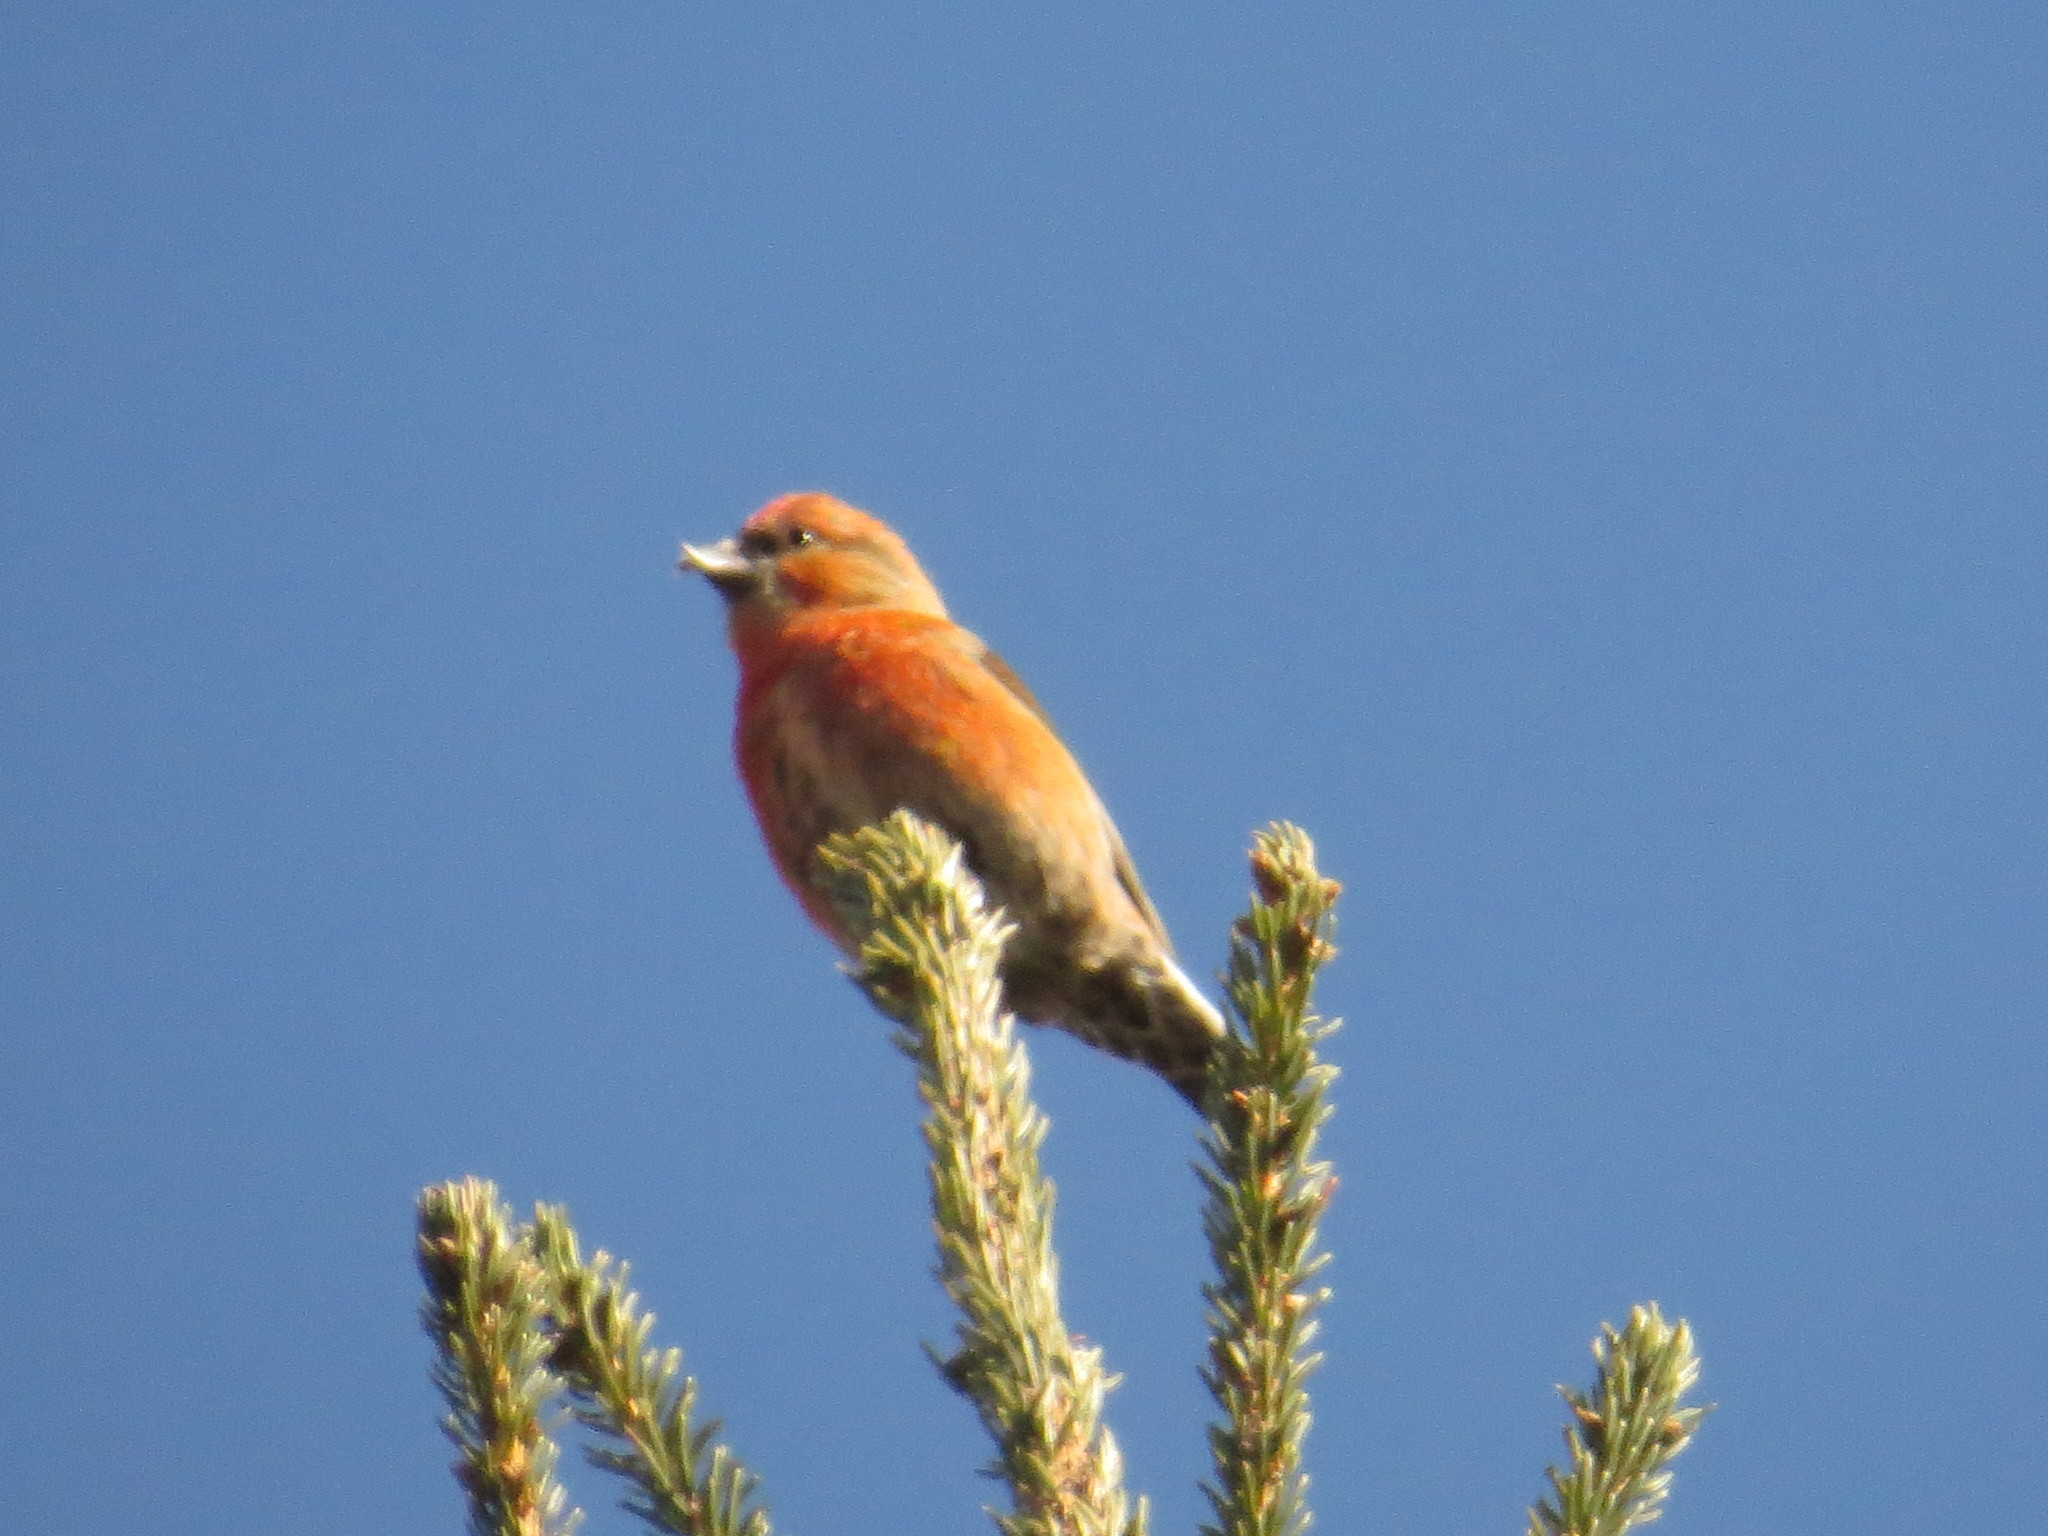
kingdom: Animalia
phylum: Chordata
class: Aves
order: Passeriformes
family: Fringillidae
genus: Loxia
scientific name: Loxia curvirostra
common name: Red crossbill
